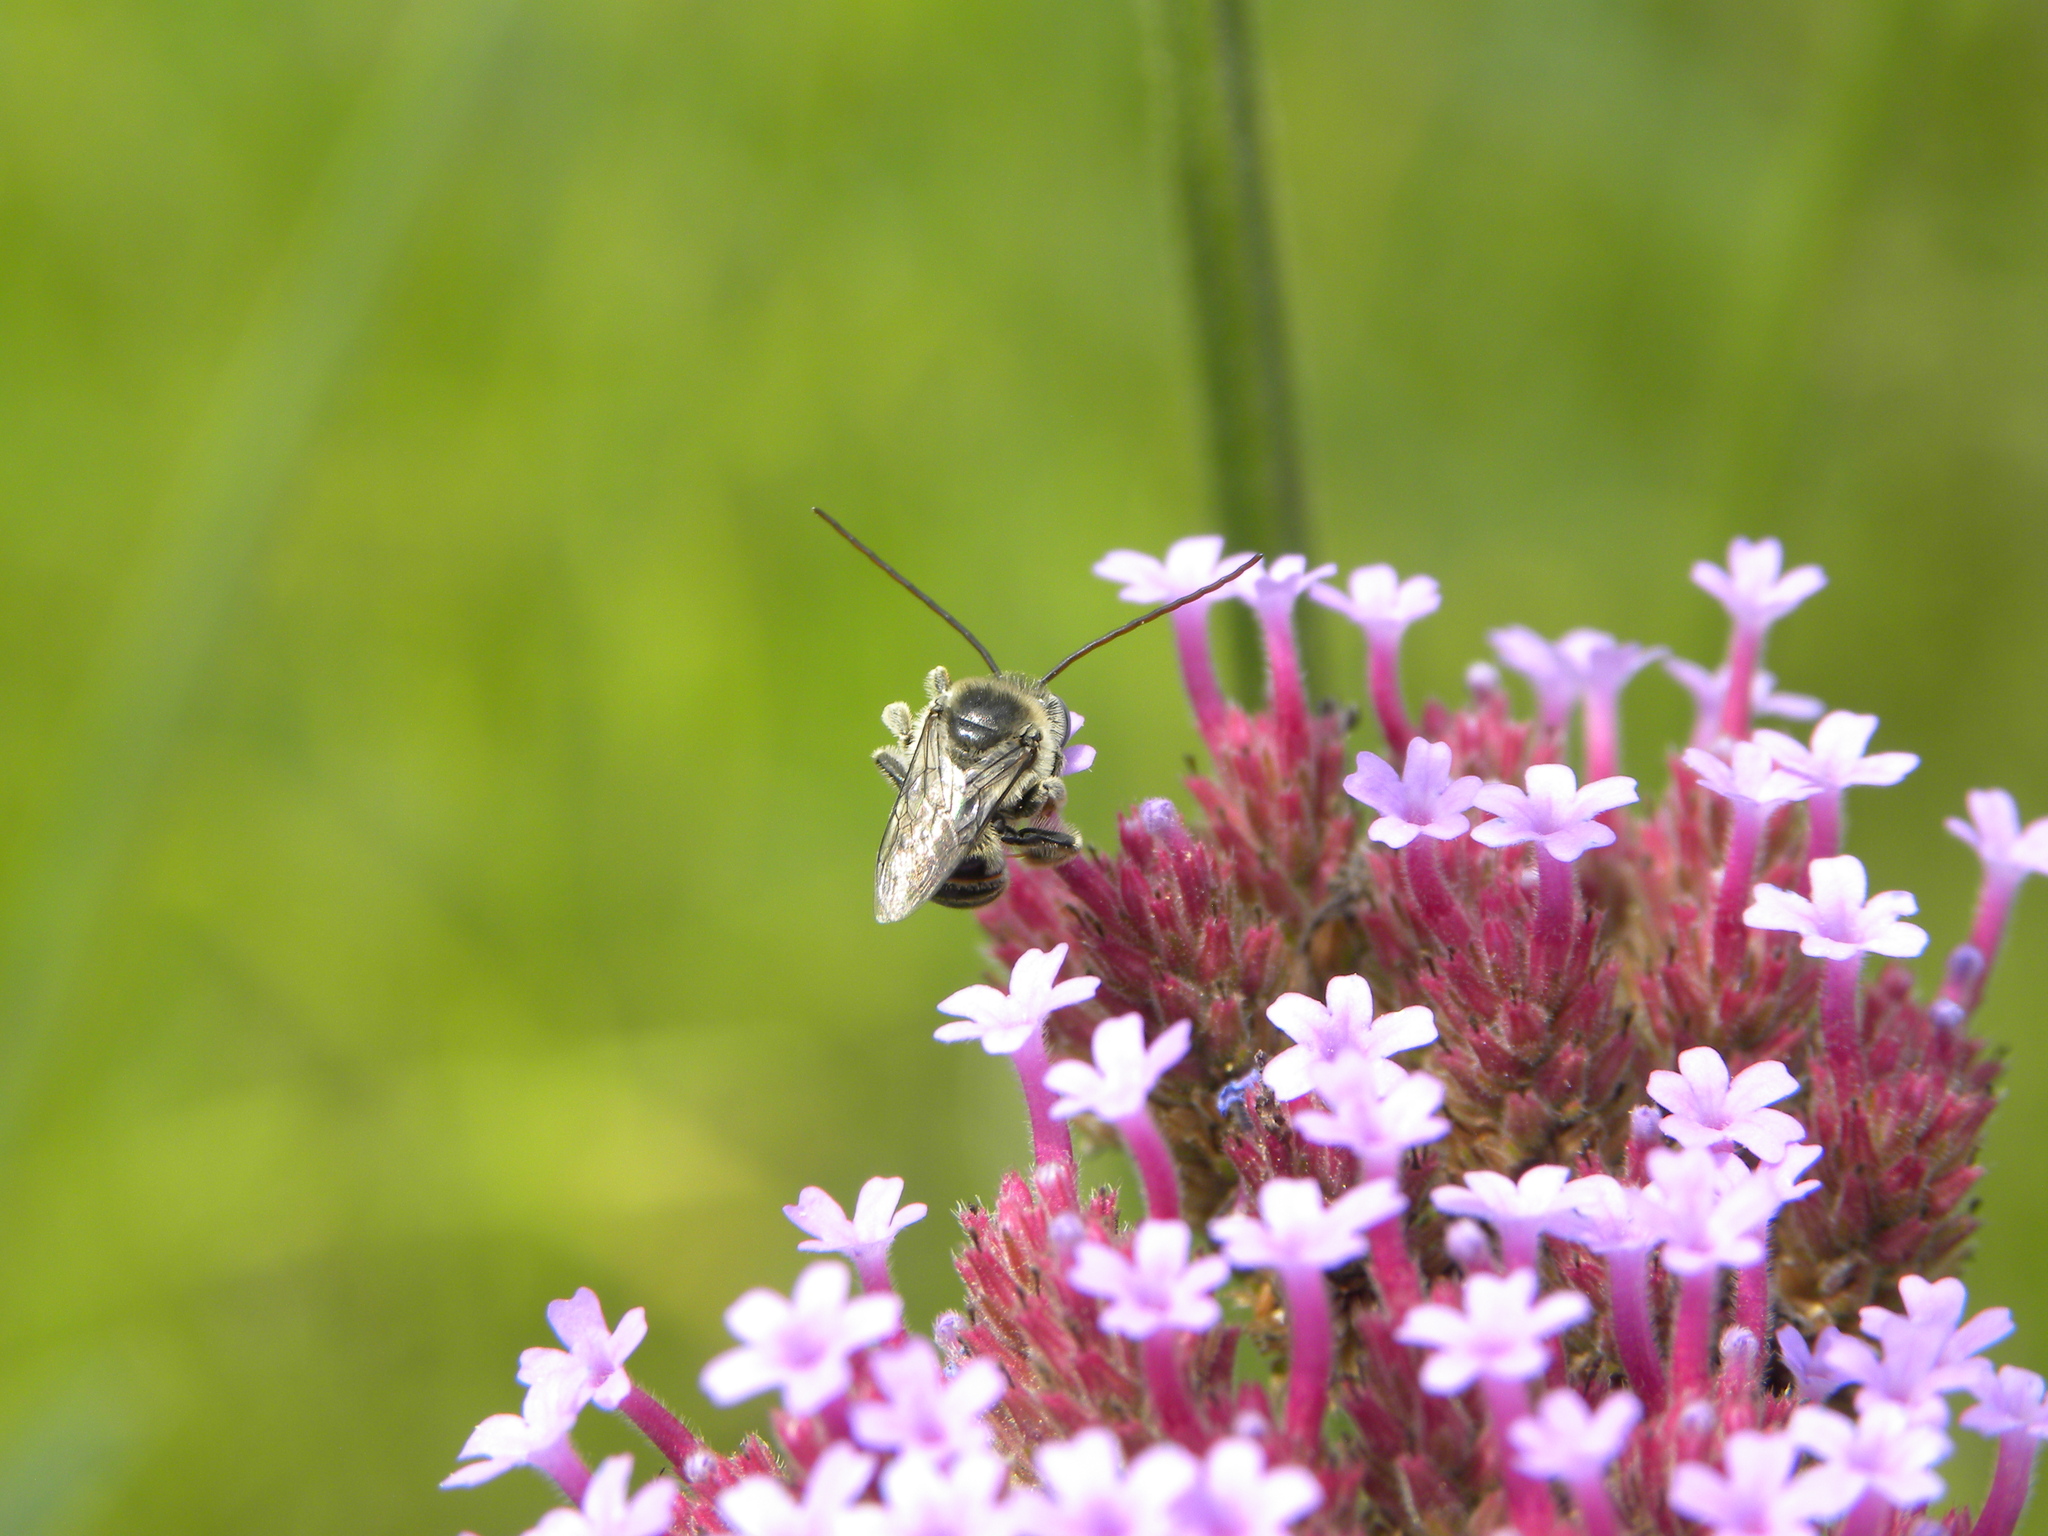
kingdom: Animalia
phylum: Arthropoda
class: Insecta
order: Hymenoptera
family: Apidae
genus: Melissodes
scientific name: Melissodes
